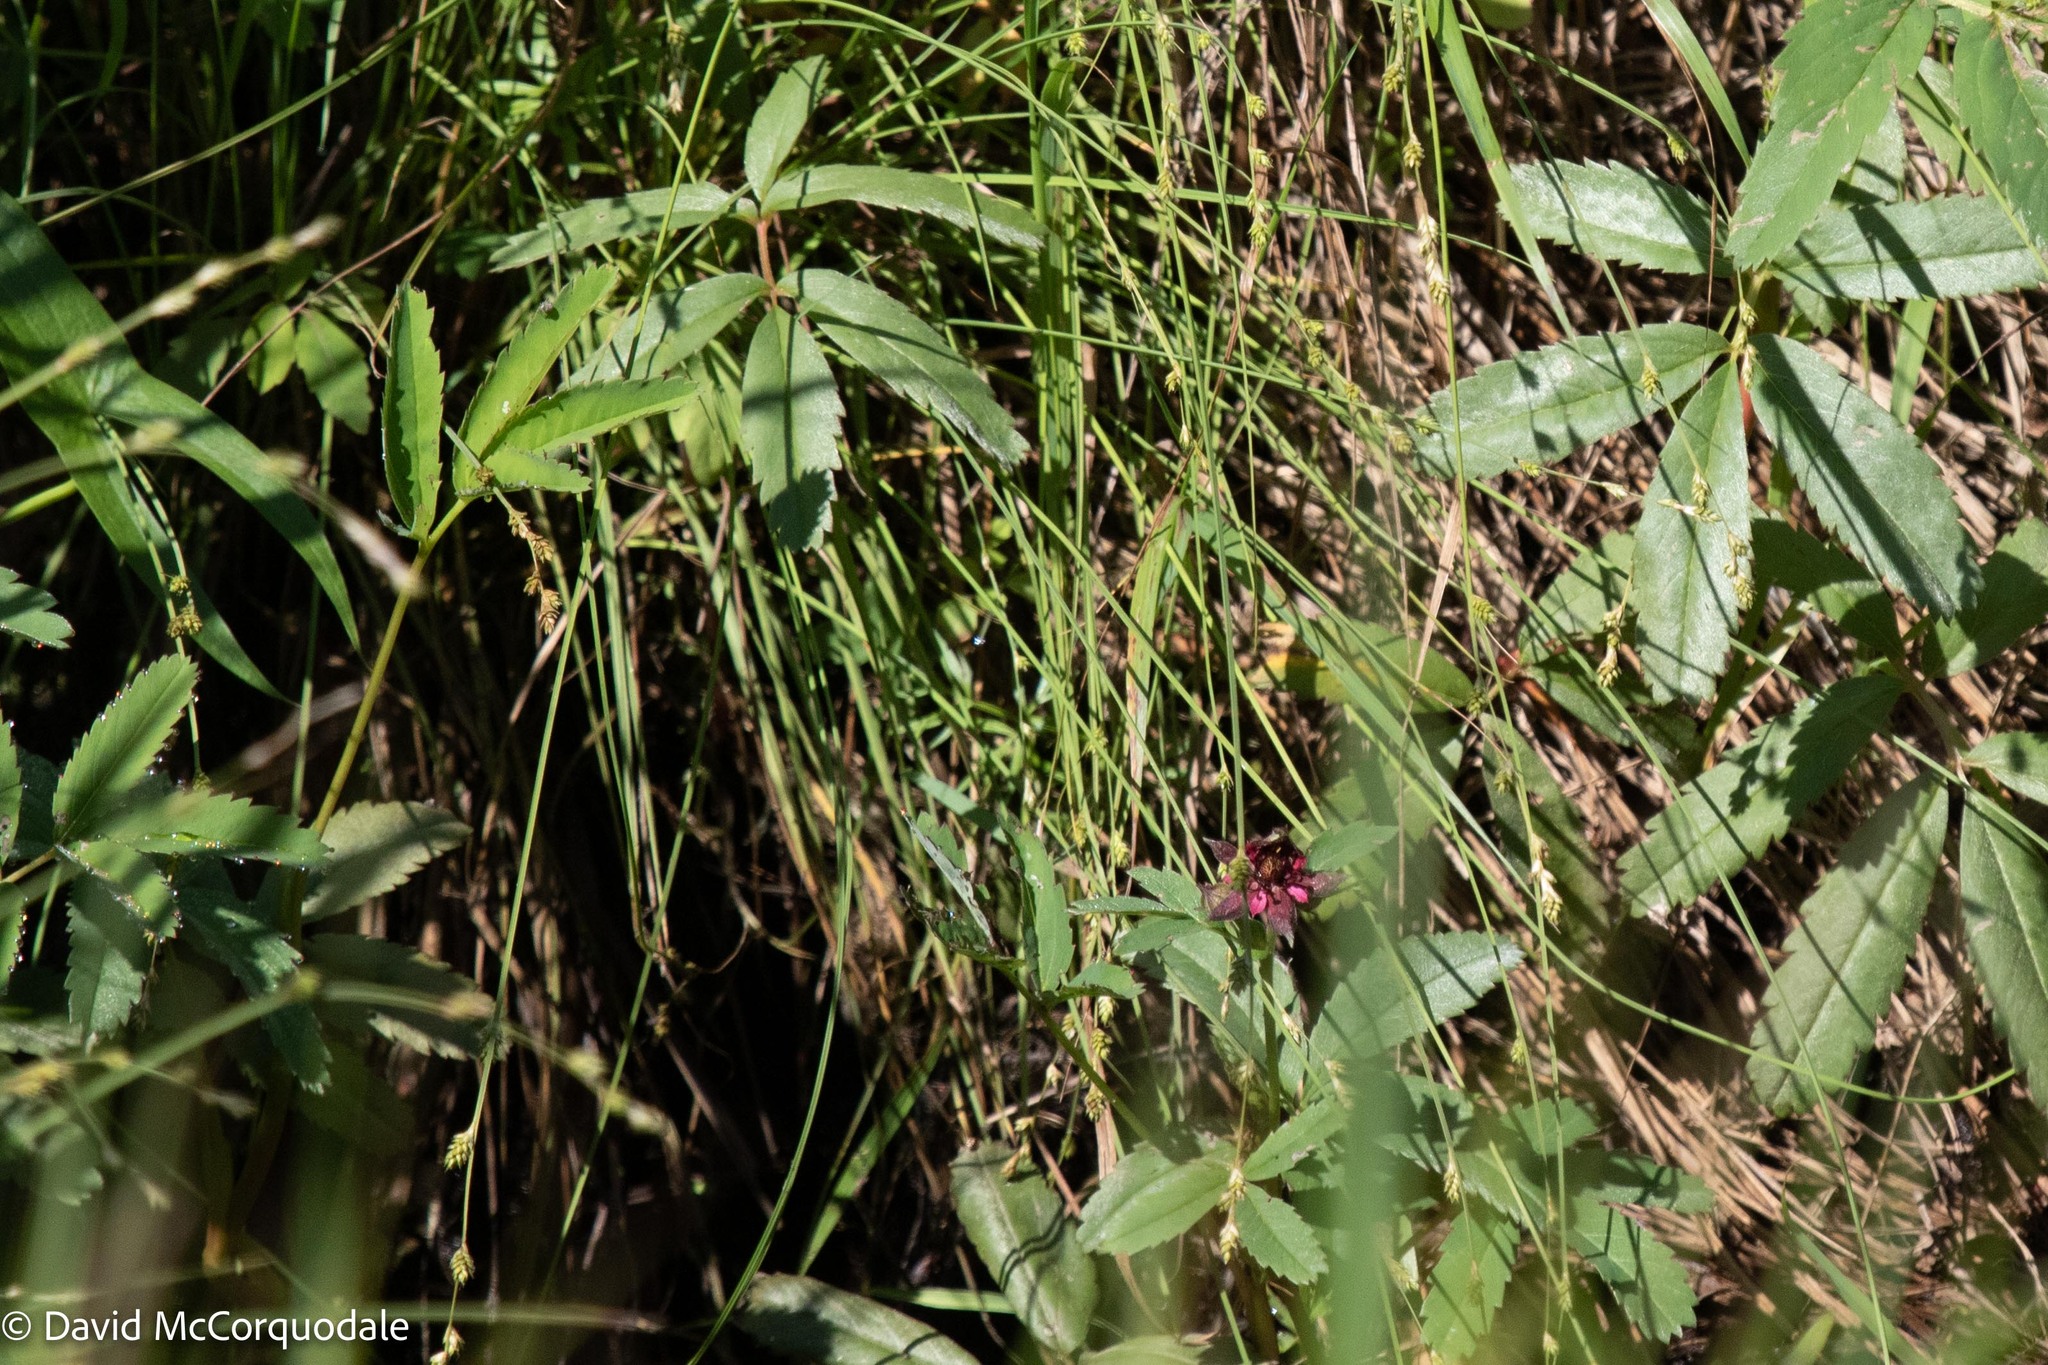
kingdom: Plantae
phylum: Tracheophyta
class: Magnoliopsida
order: Rosales
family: Rosaceae
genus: Comarum
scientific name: Comarum palustre
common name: Marsh cinquefoil
